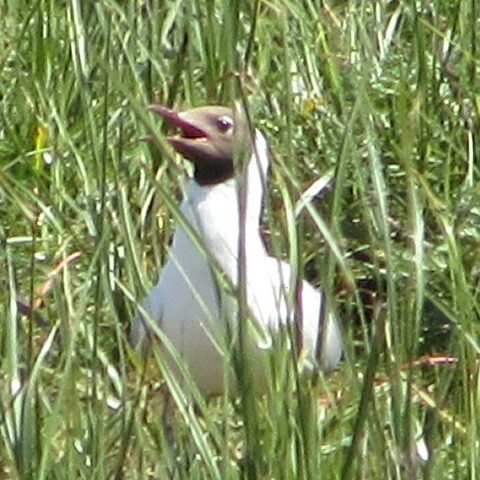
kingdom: Animalia
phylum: Chordata
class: Aves
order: Charadriiformes
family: Laridae
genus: Chroicocephalus
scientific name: Chroicocephalus ridibundus
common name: Black-headed gull
